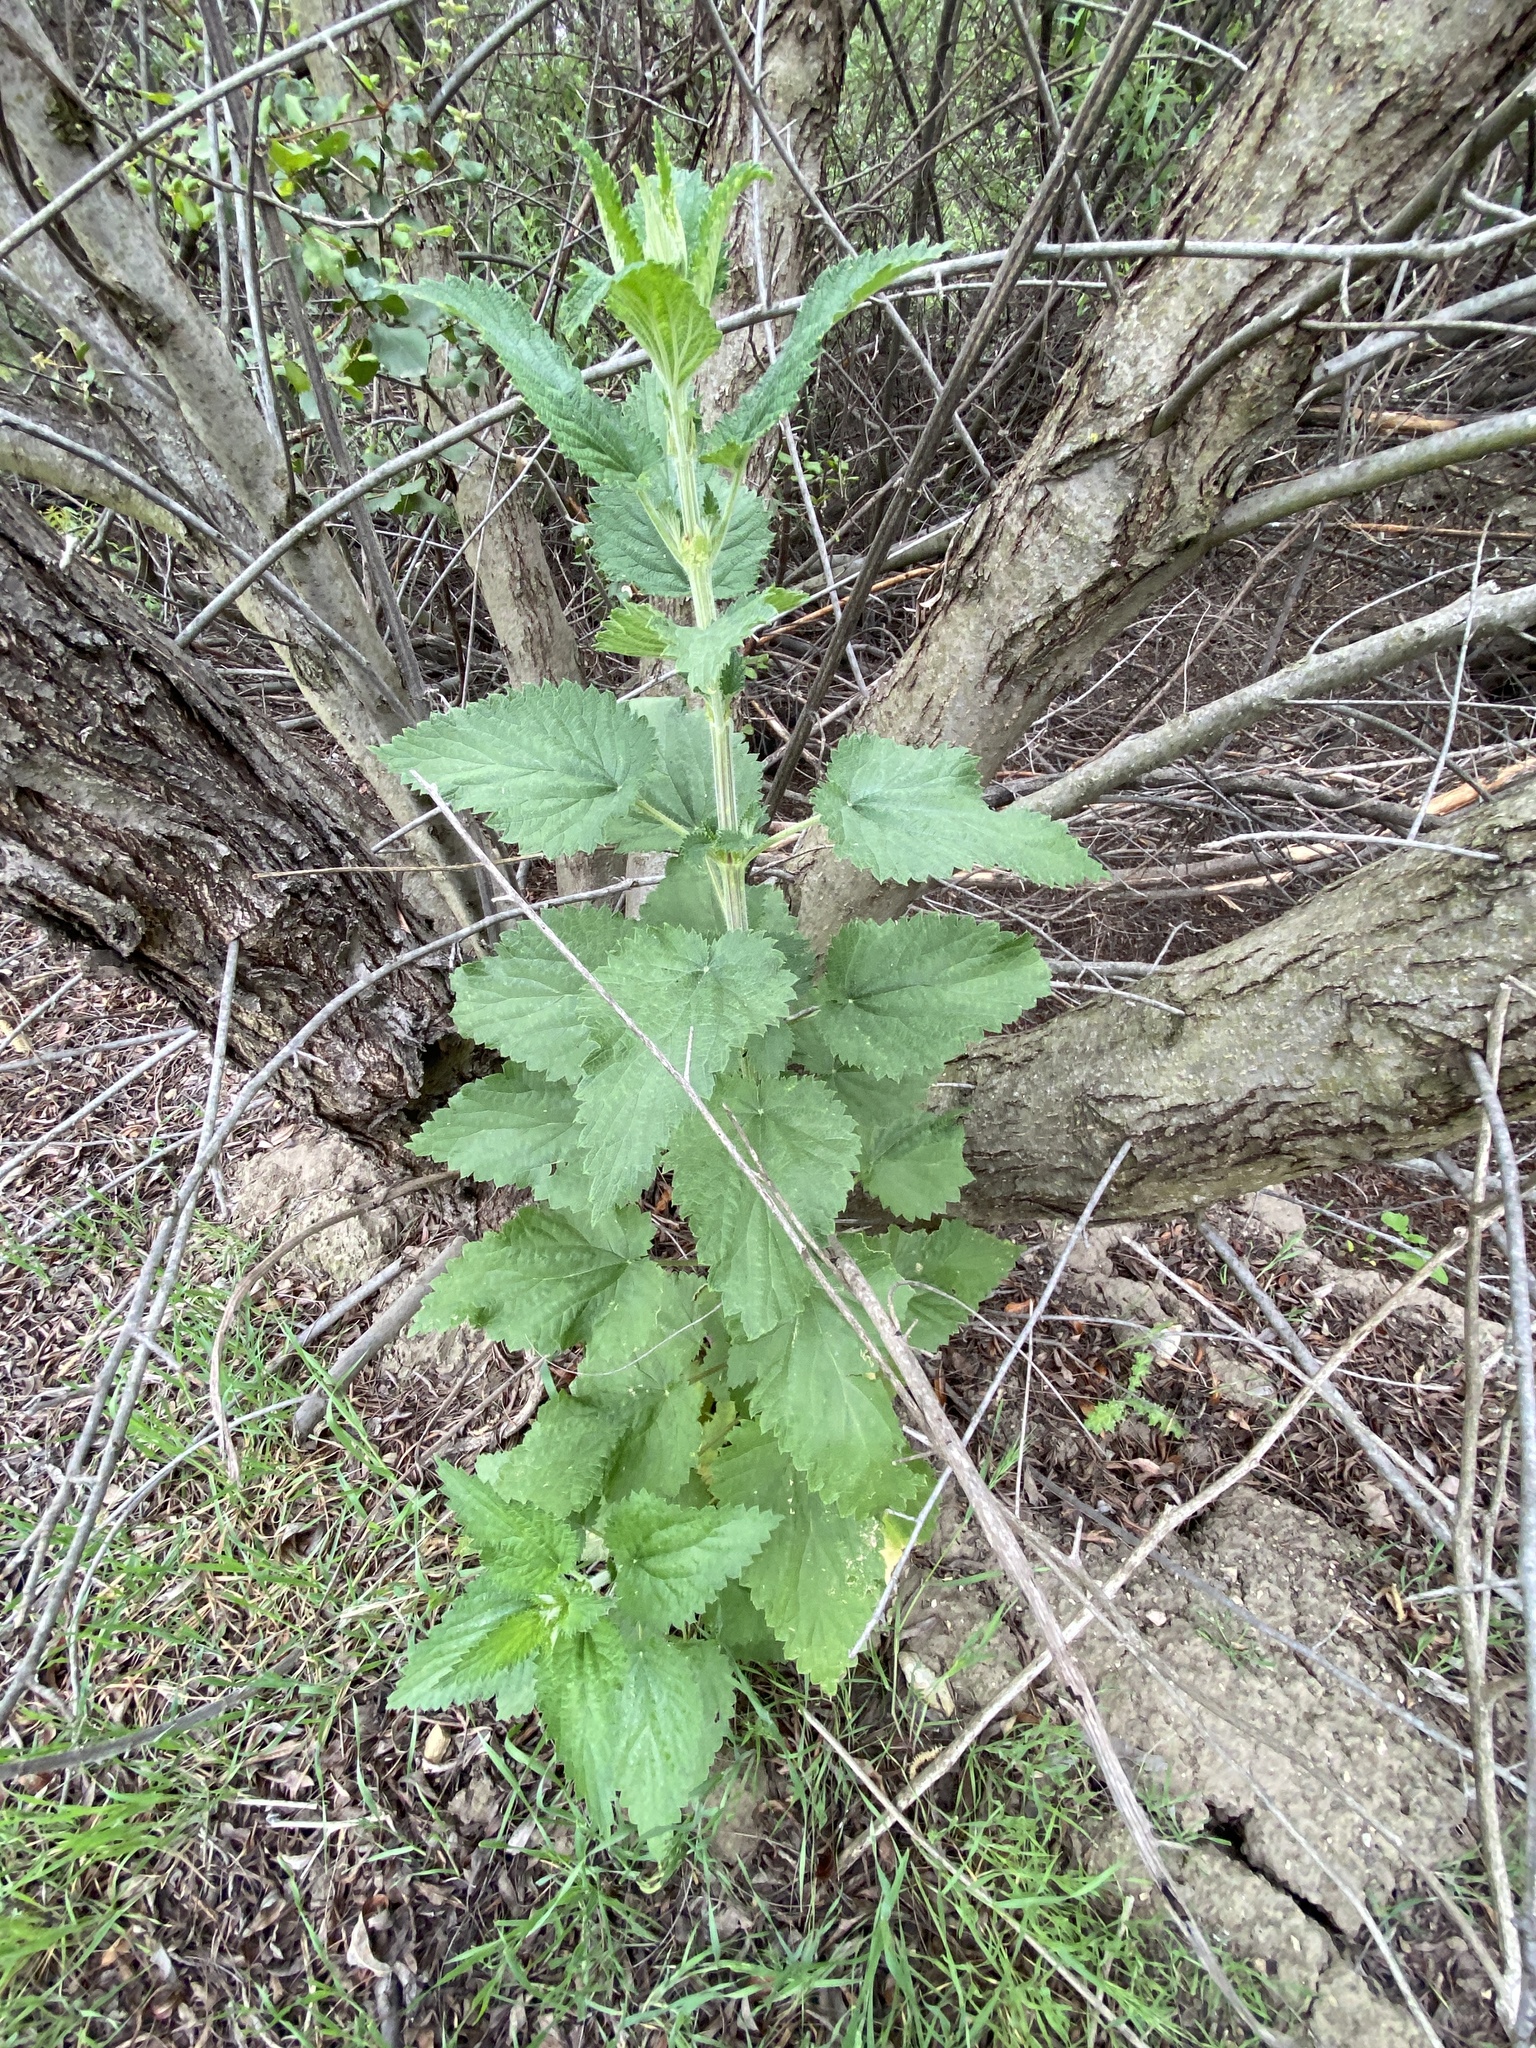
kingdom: Plantae
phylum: Tracheophyta
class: Magnoliopsida
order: Rosales
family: Urticaceae
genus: Urtica
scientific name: Urtica dioica
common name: Common nettle
